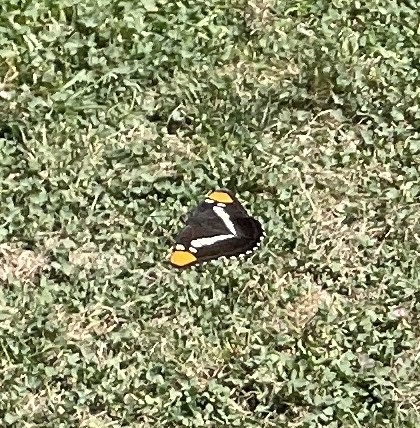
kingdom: Animalia
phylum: Arthropoda
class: Insecta
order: Lepidoptera
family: Nymphalidae
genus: Limenitis
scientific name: Limenitis bredowii
